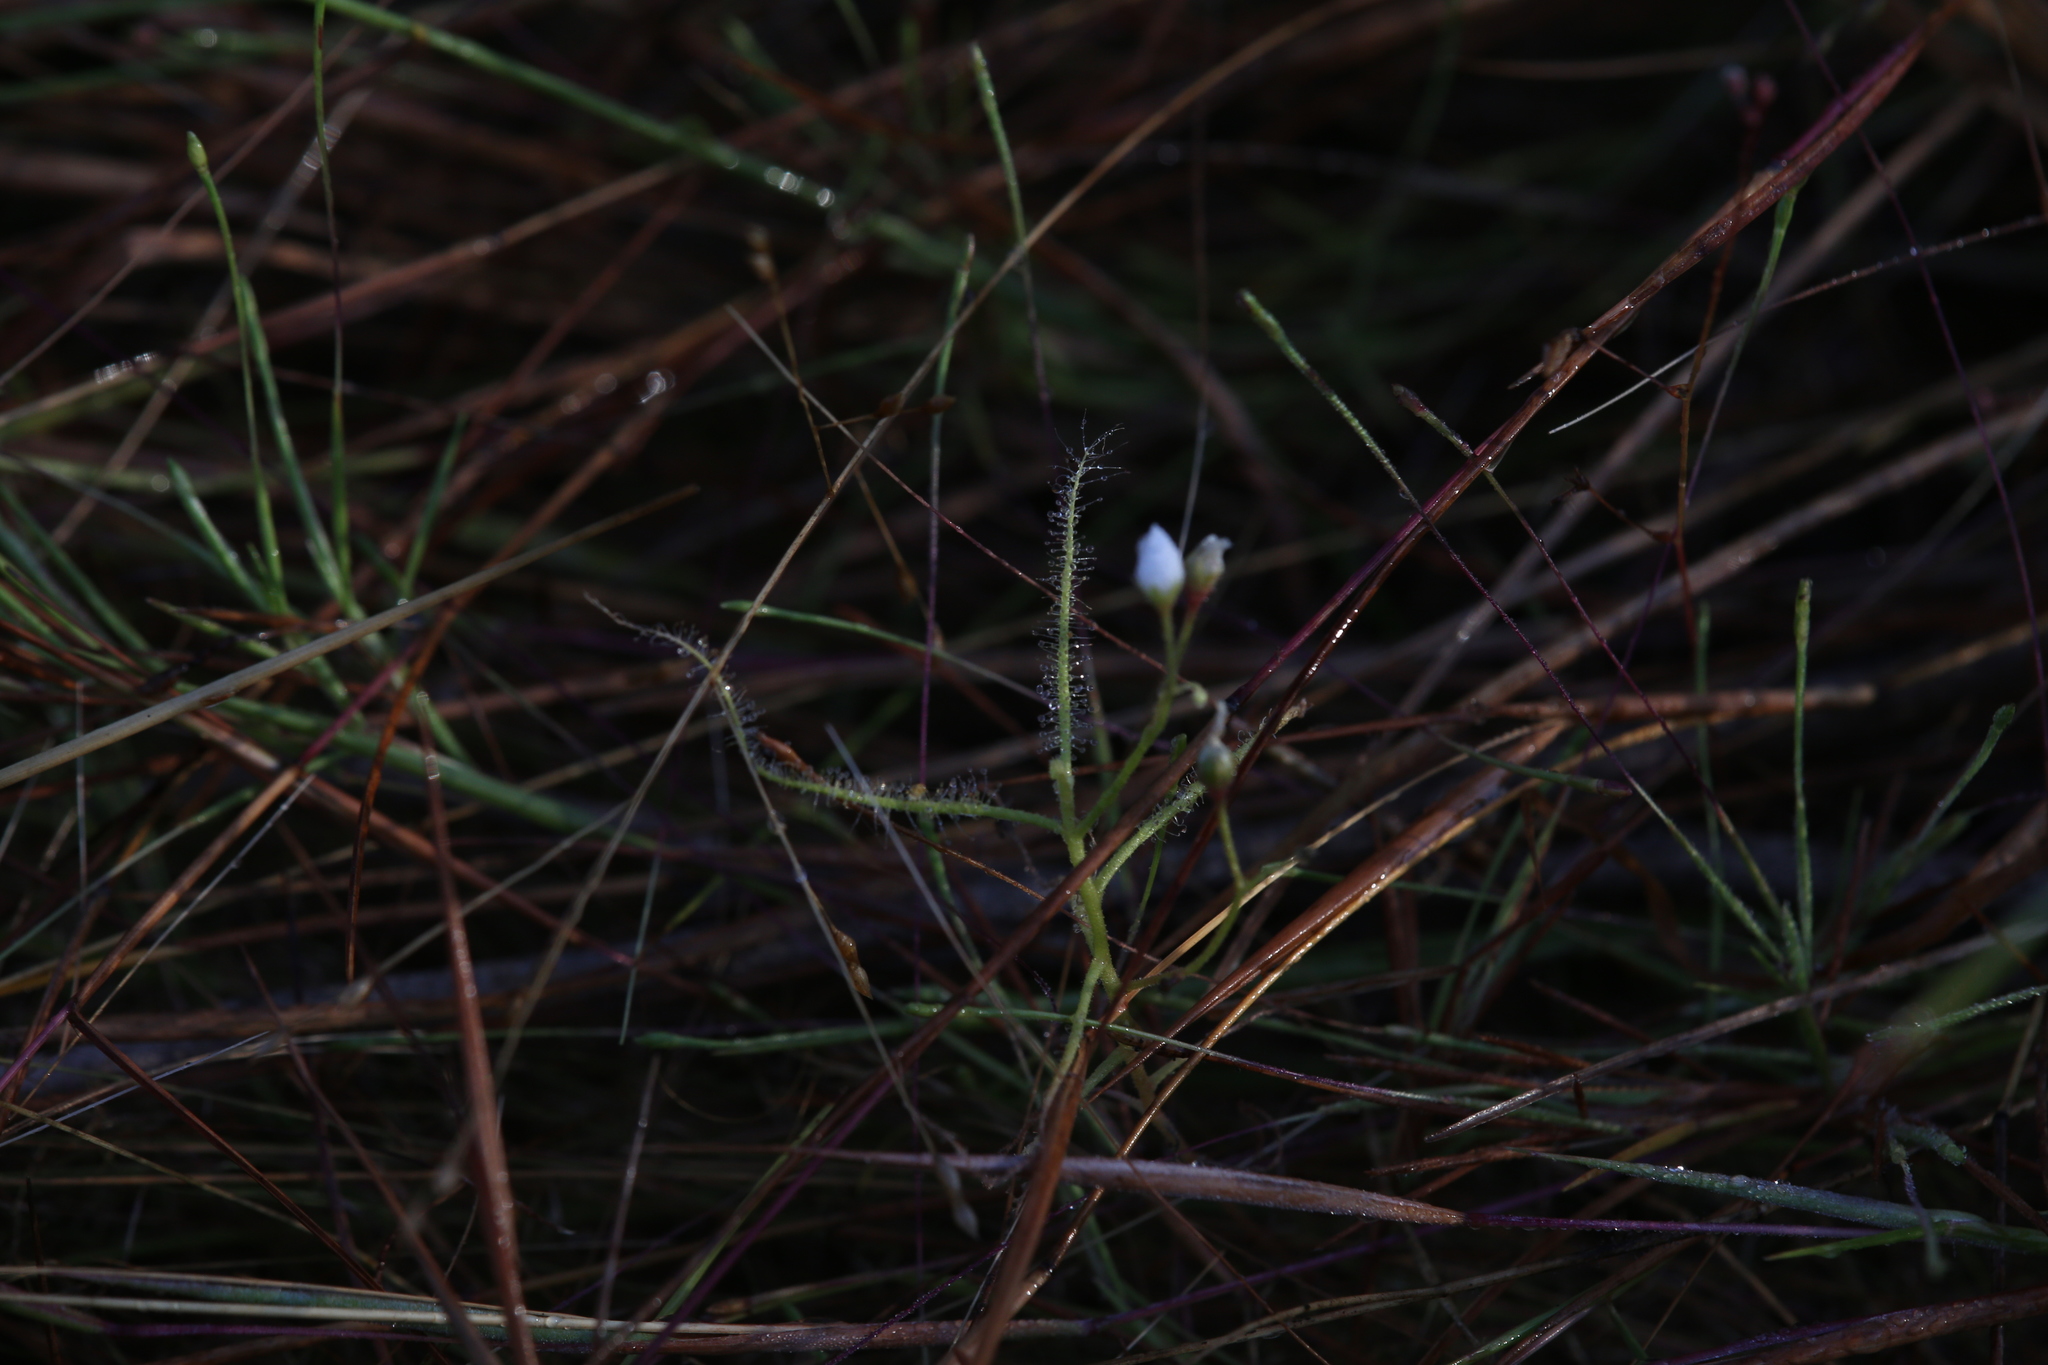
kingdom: Plantae
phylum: Tracheophyta
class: Magnoliopsida
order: Caryophyllales
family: Droseraceae
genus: Drosera
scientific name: Drosera indica
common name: Indian sundew
